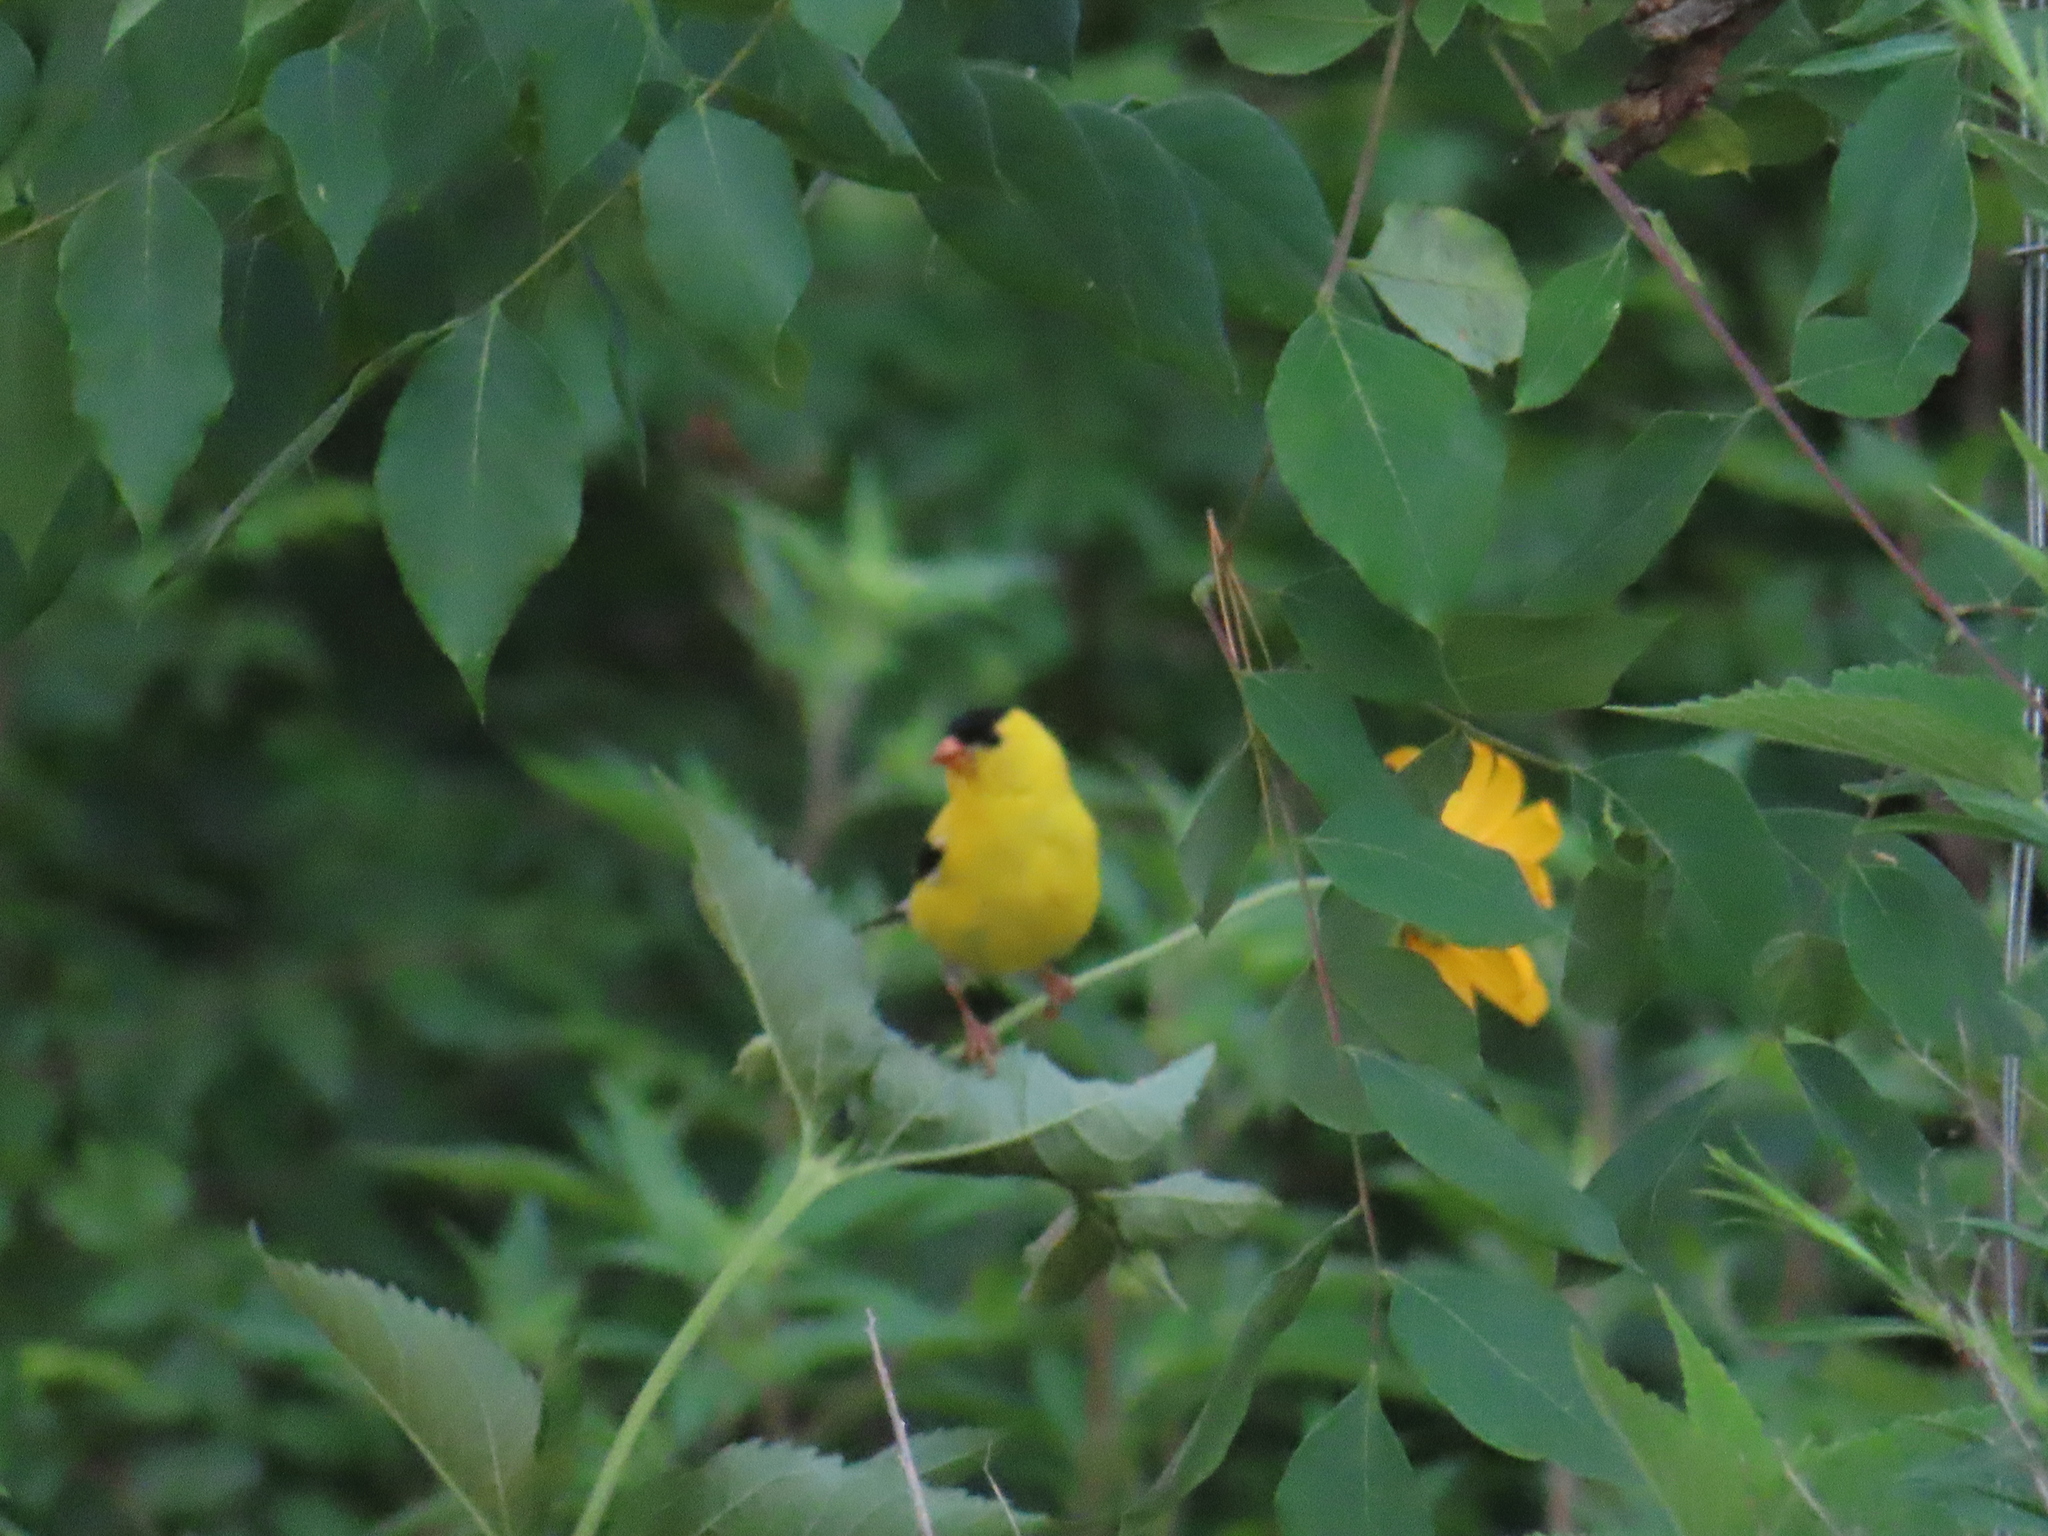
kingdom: Animalia
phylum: Chordata
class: Aves
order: Passeriformes
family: Fringillidae
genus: Spinus
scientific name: Spinus tristis
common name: American goldfinch
